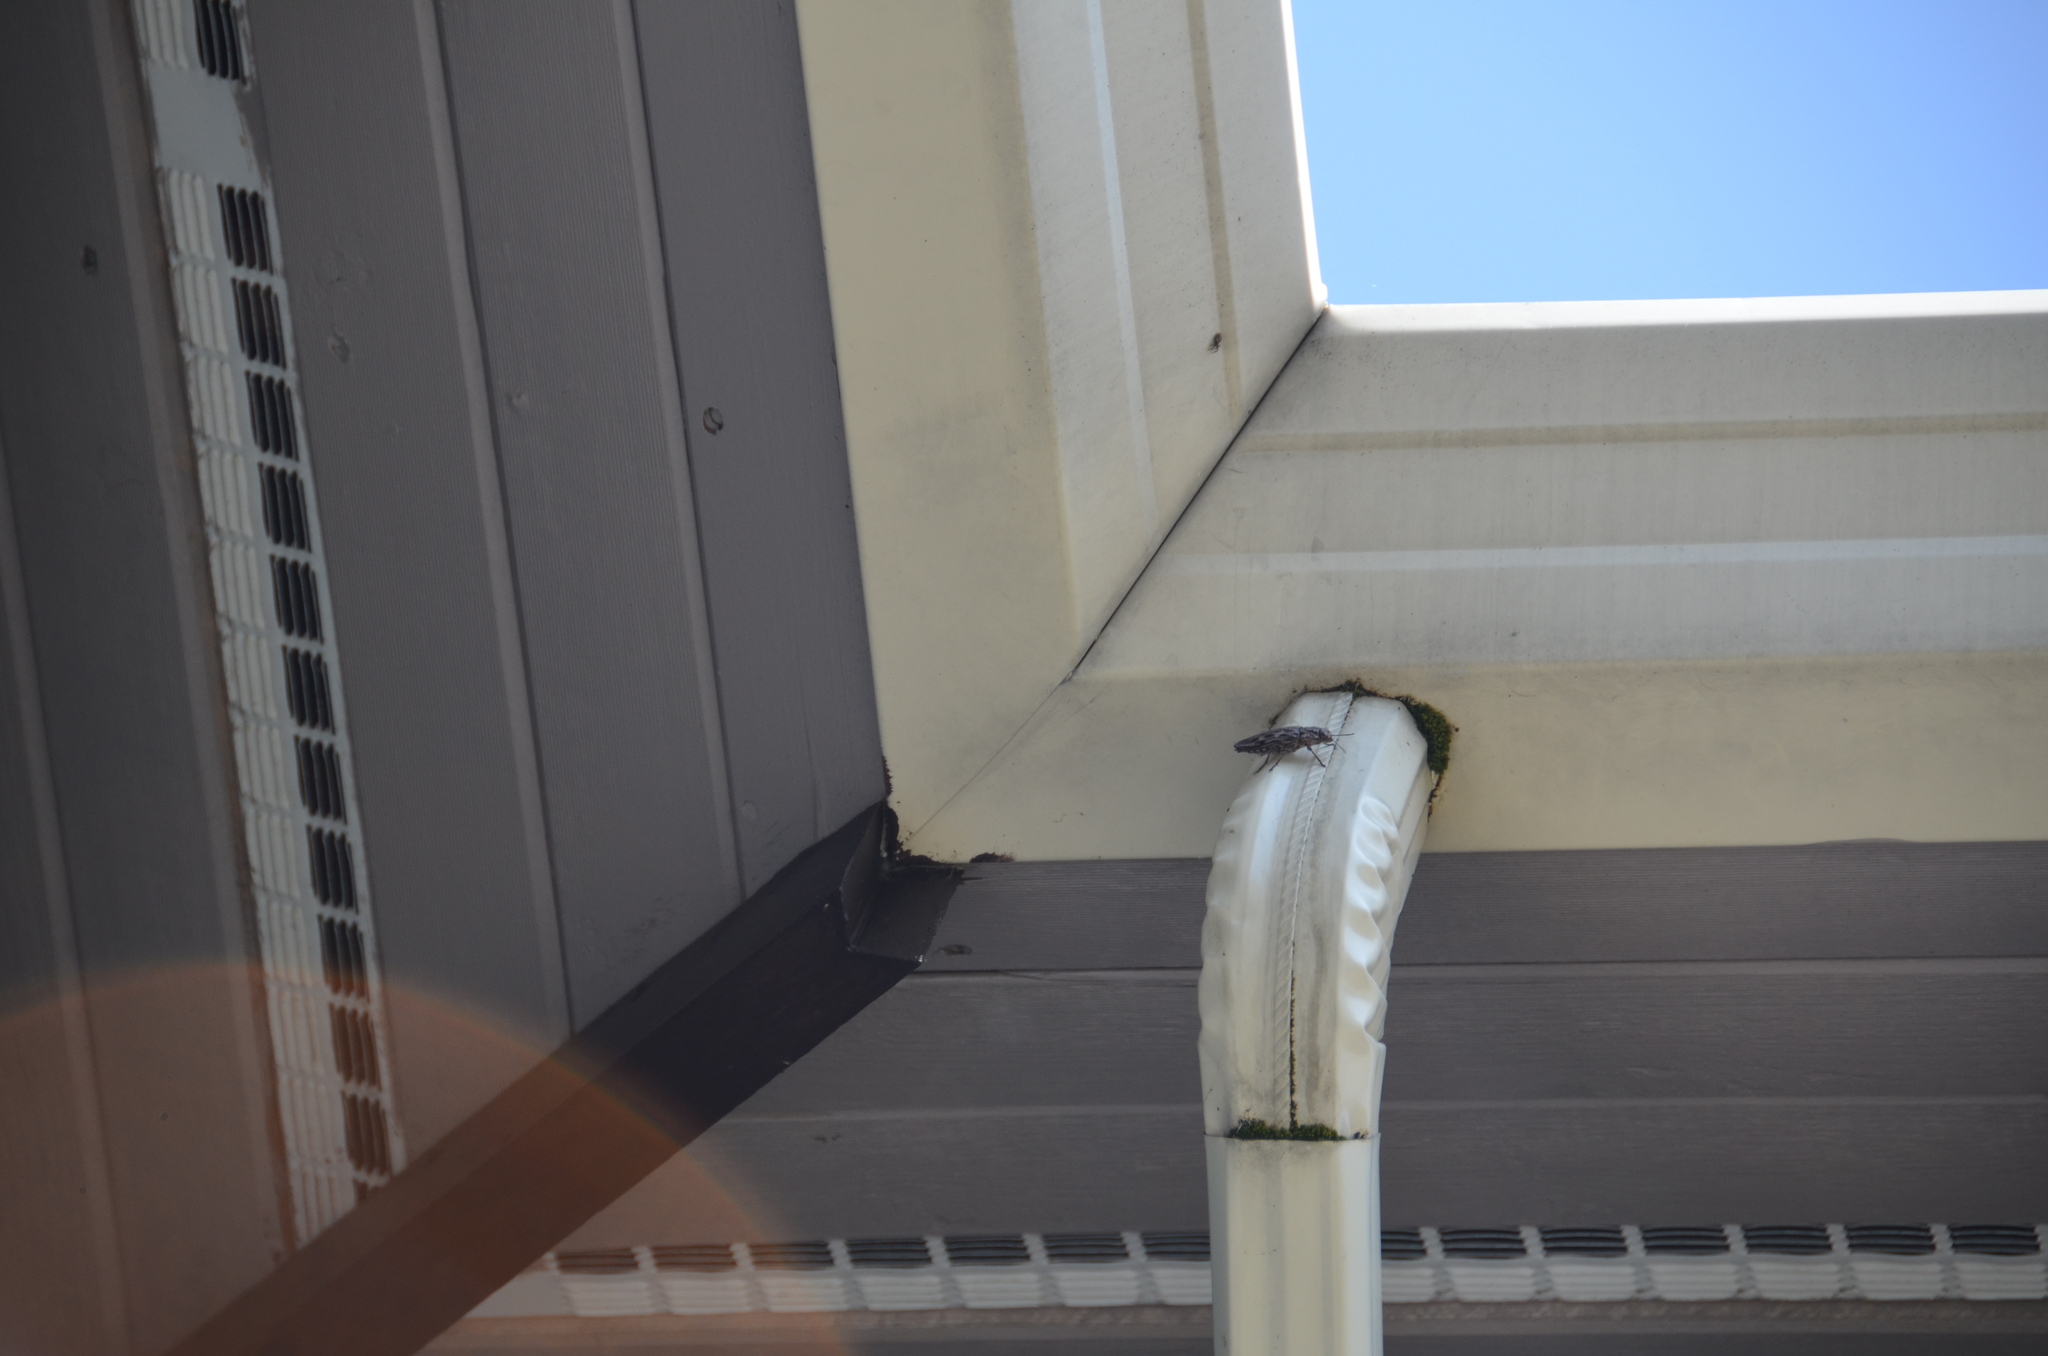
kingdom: Animalia
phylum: Arthropoda
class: Insecta
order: Coleoptera
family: Buprestidae
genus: Chalcophora
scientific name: Chalcophora angulicollis
